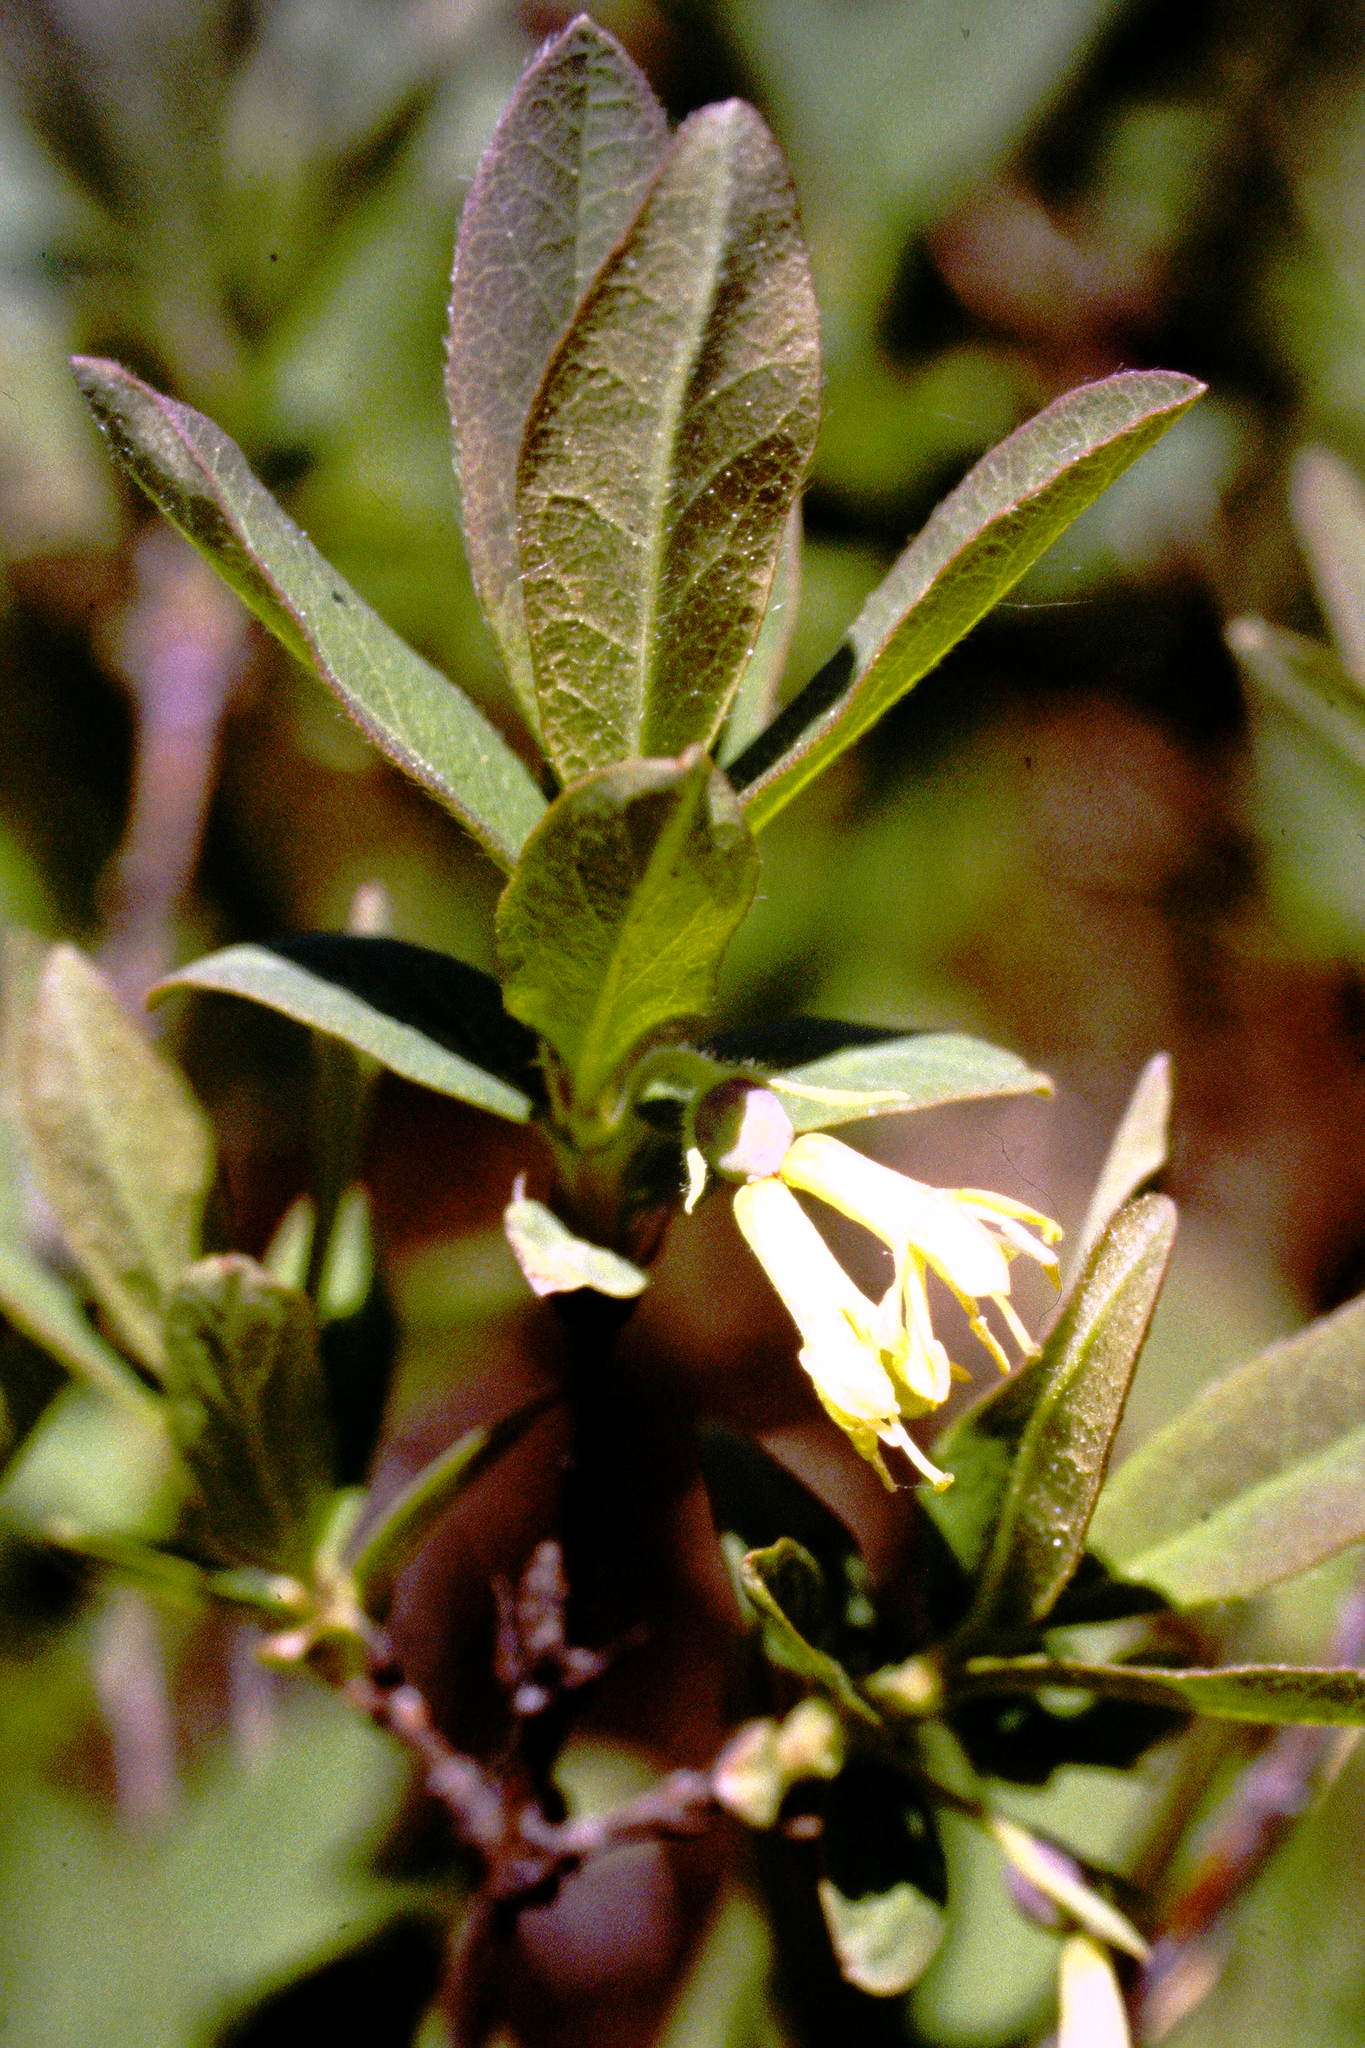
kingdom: Plantae
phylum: Tracheophyta
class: Magnoliopsida
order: Dipsacales
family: Caprifoliaceae
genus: Lonicera
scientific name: Lonicera villosa
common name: Mountain fly-honeysuckle
